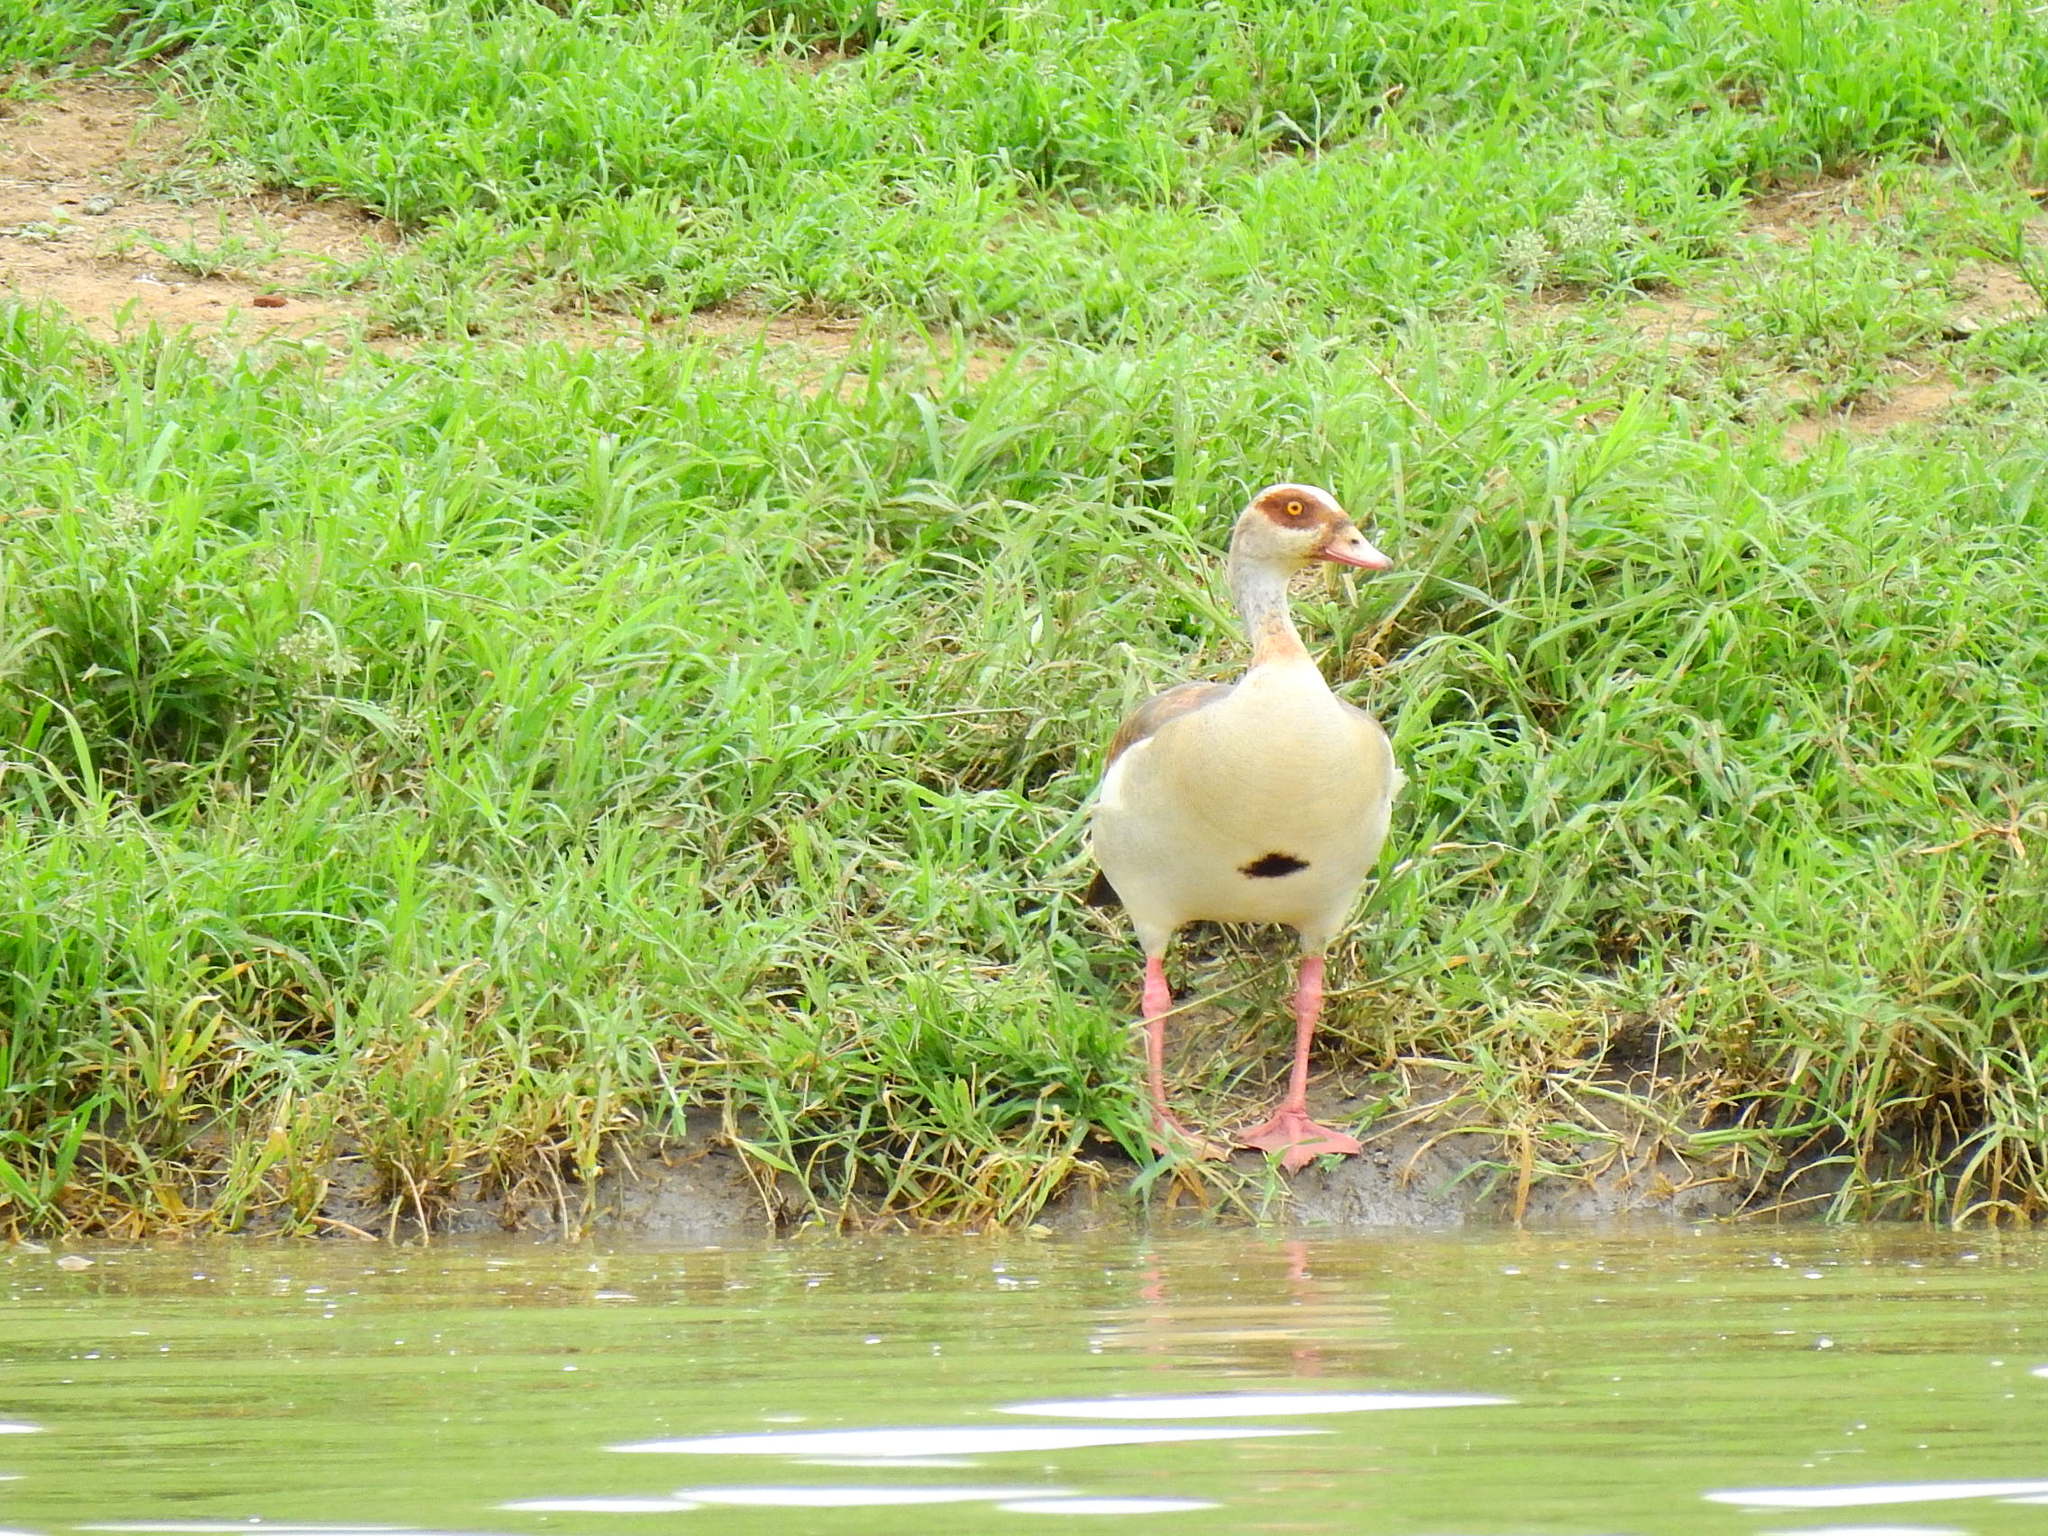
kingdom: Animalia
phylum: Chordata
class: Aves
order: Anseriformes
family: Anatidae
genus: Alopochen
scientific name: Alopochen aegyptiaca
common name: Egyptian goose
